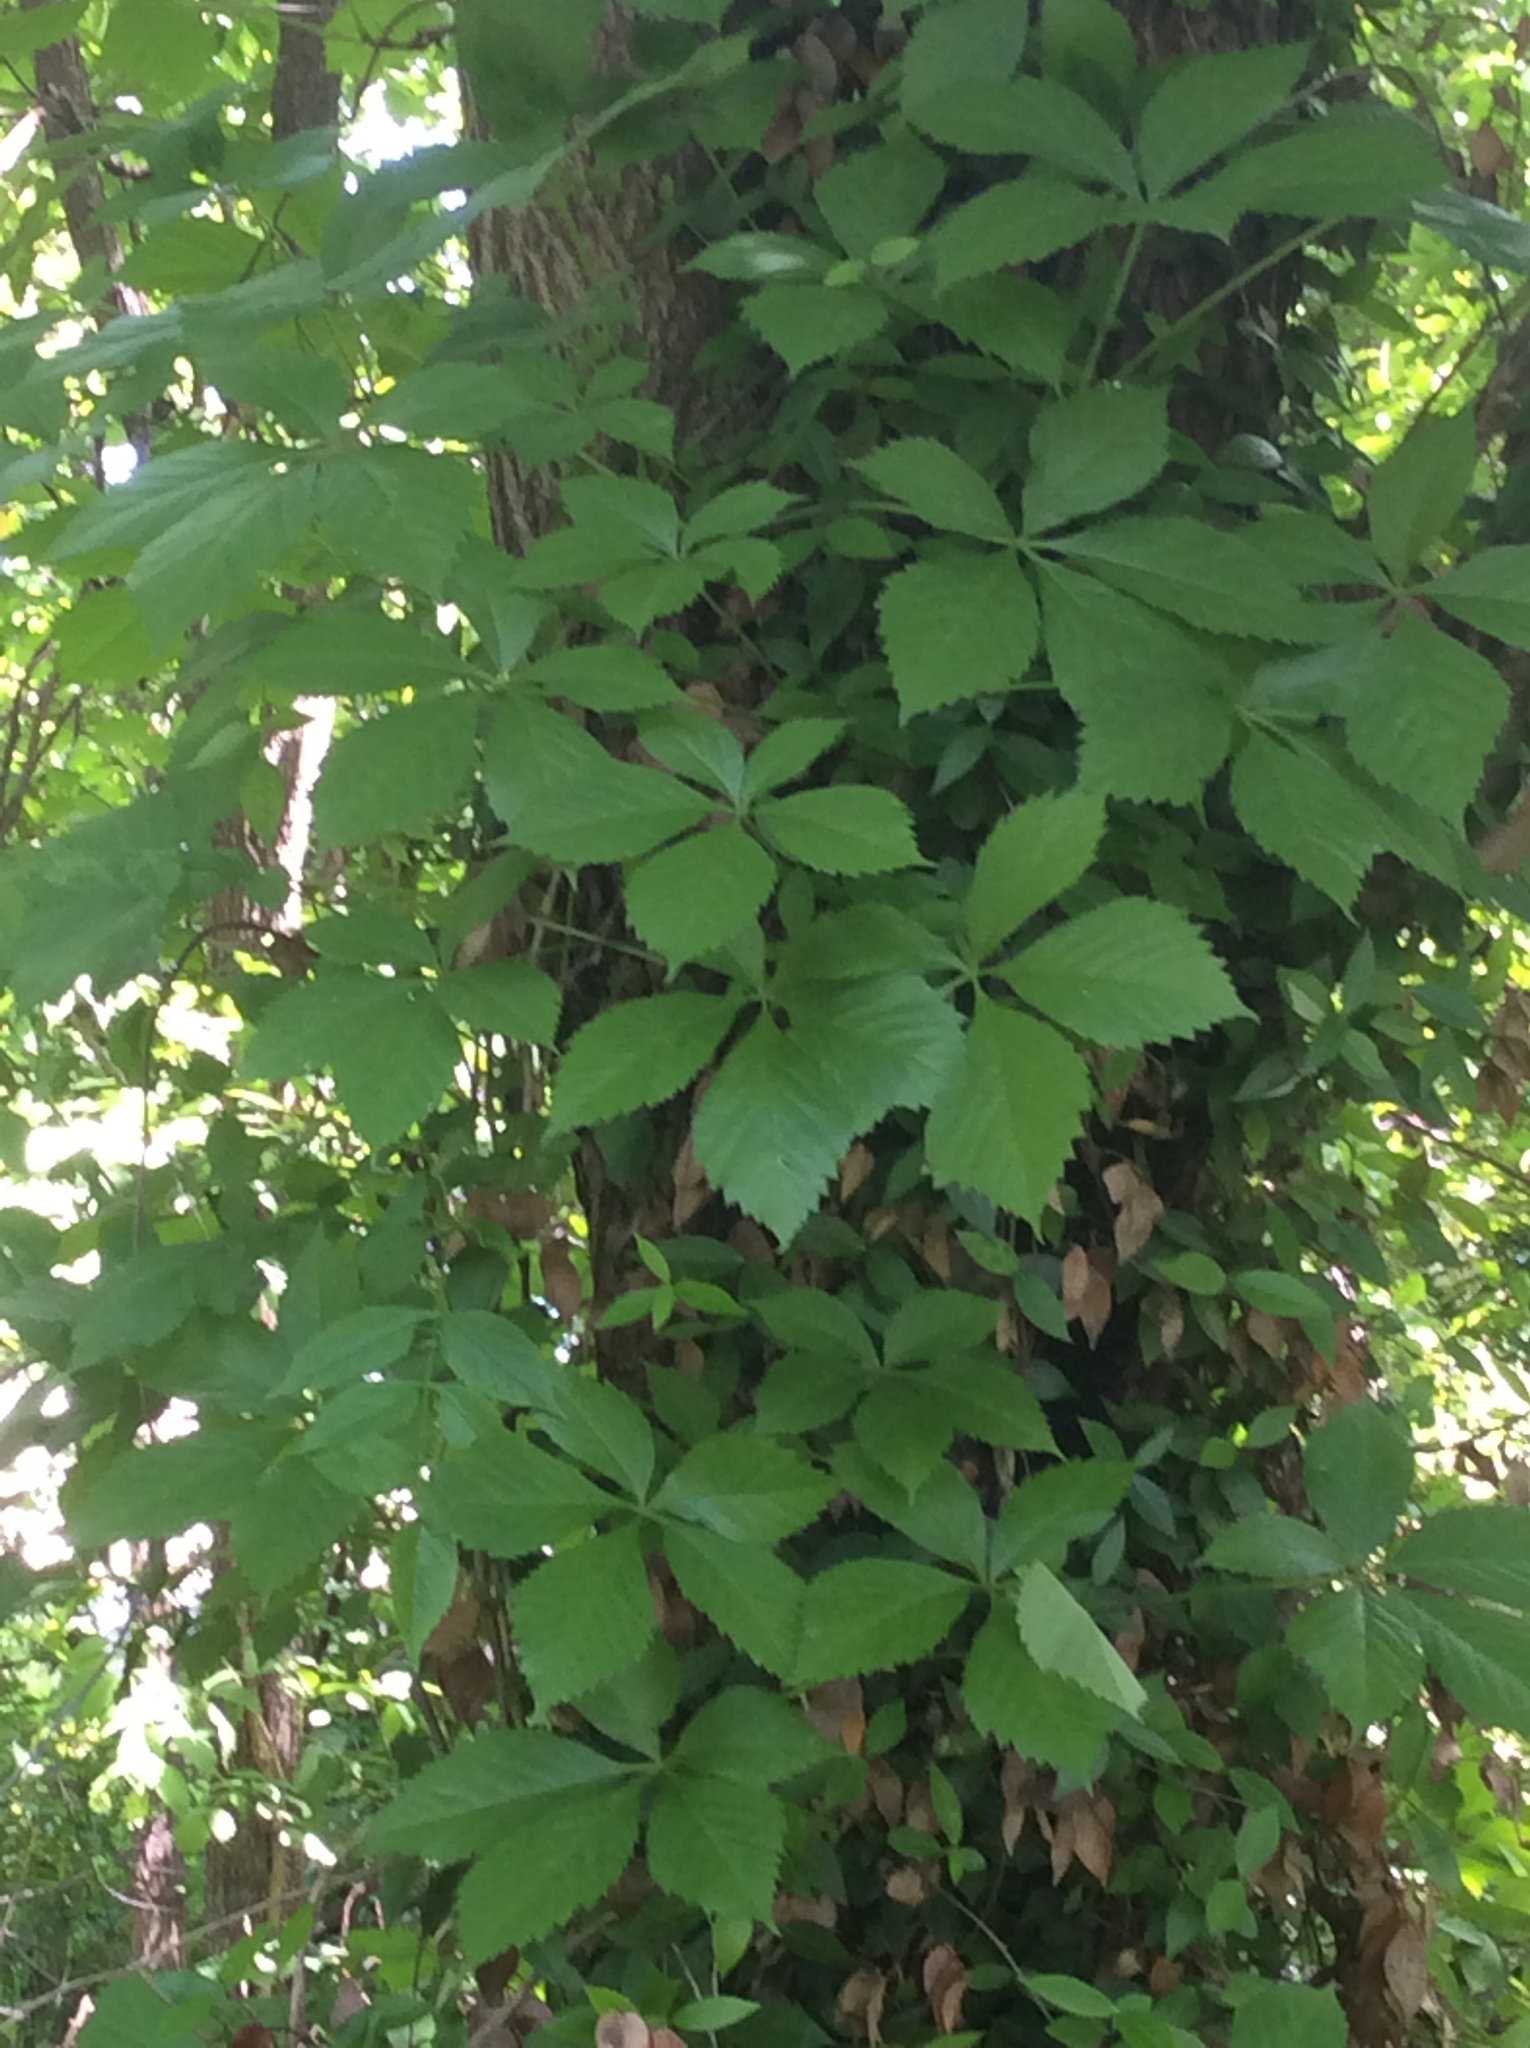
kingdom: Plantae
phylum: Tracheophyta
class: Magnoliopsida
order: Vitales
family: Vitaceae
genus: Parthenocissus
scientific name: Parthenocissus quinquefolia
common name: Virginia-creeper
